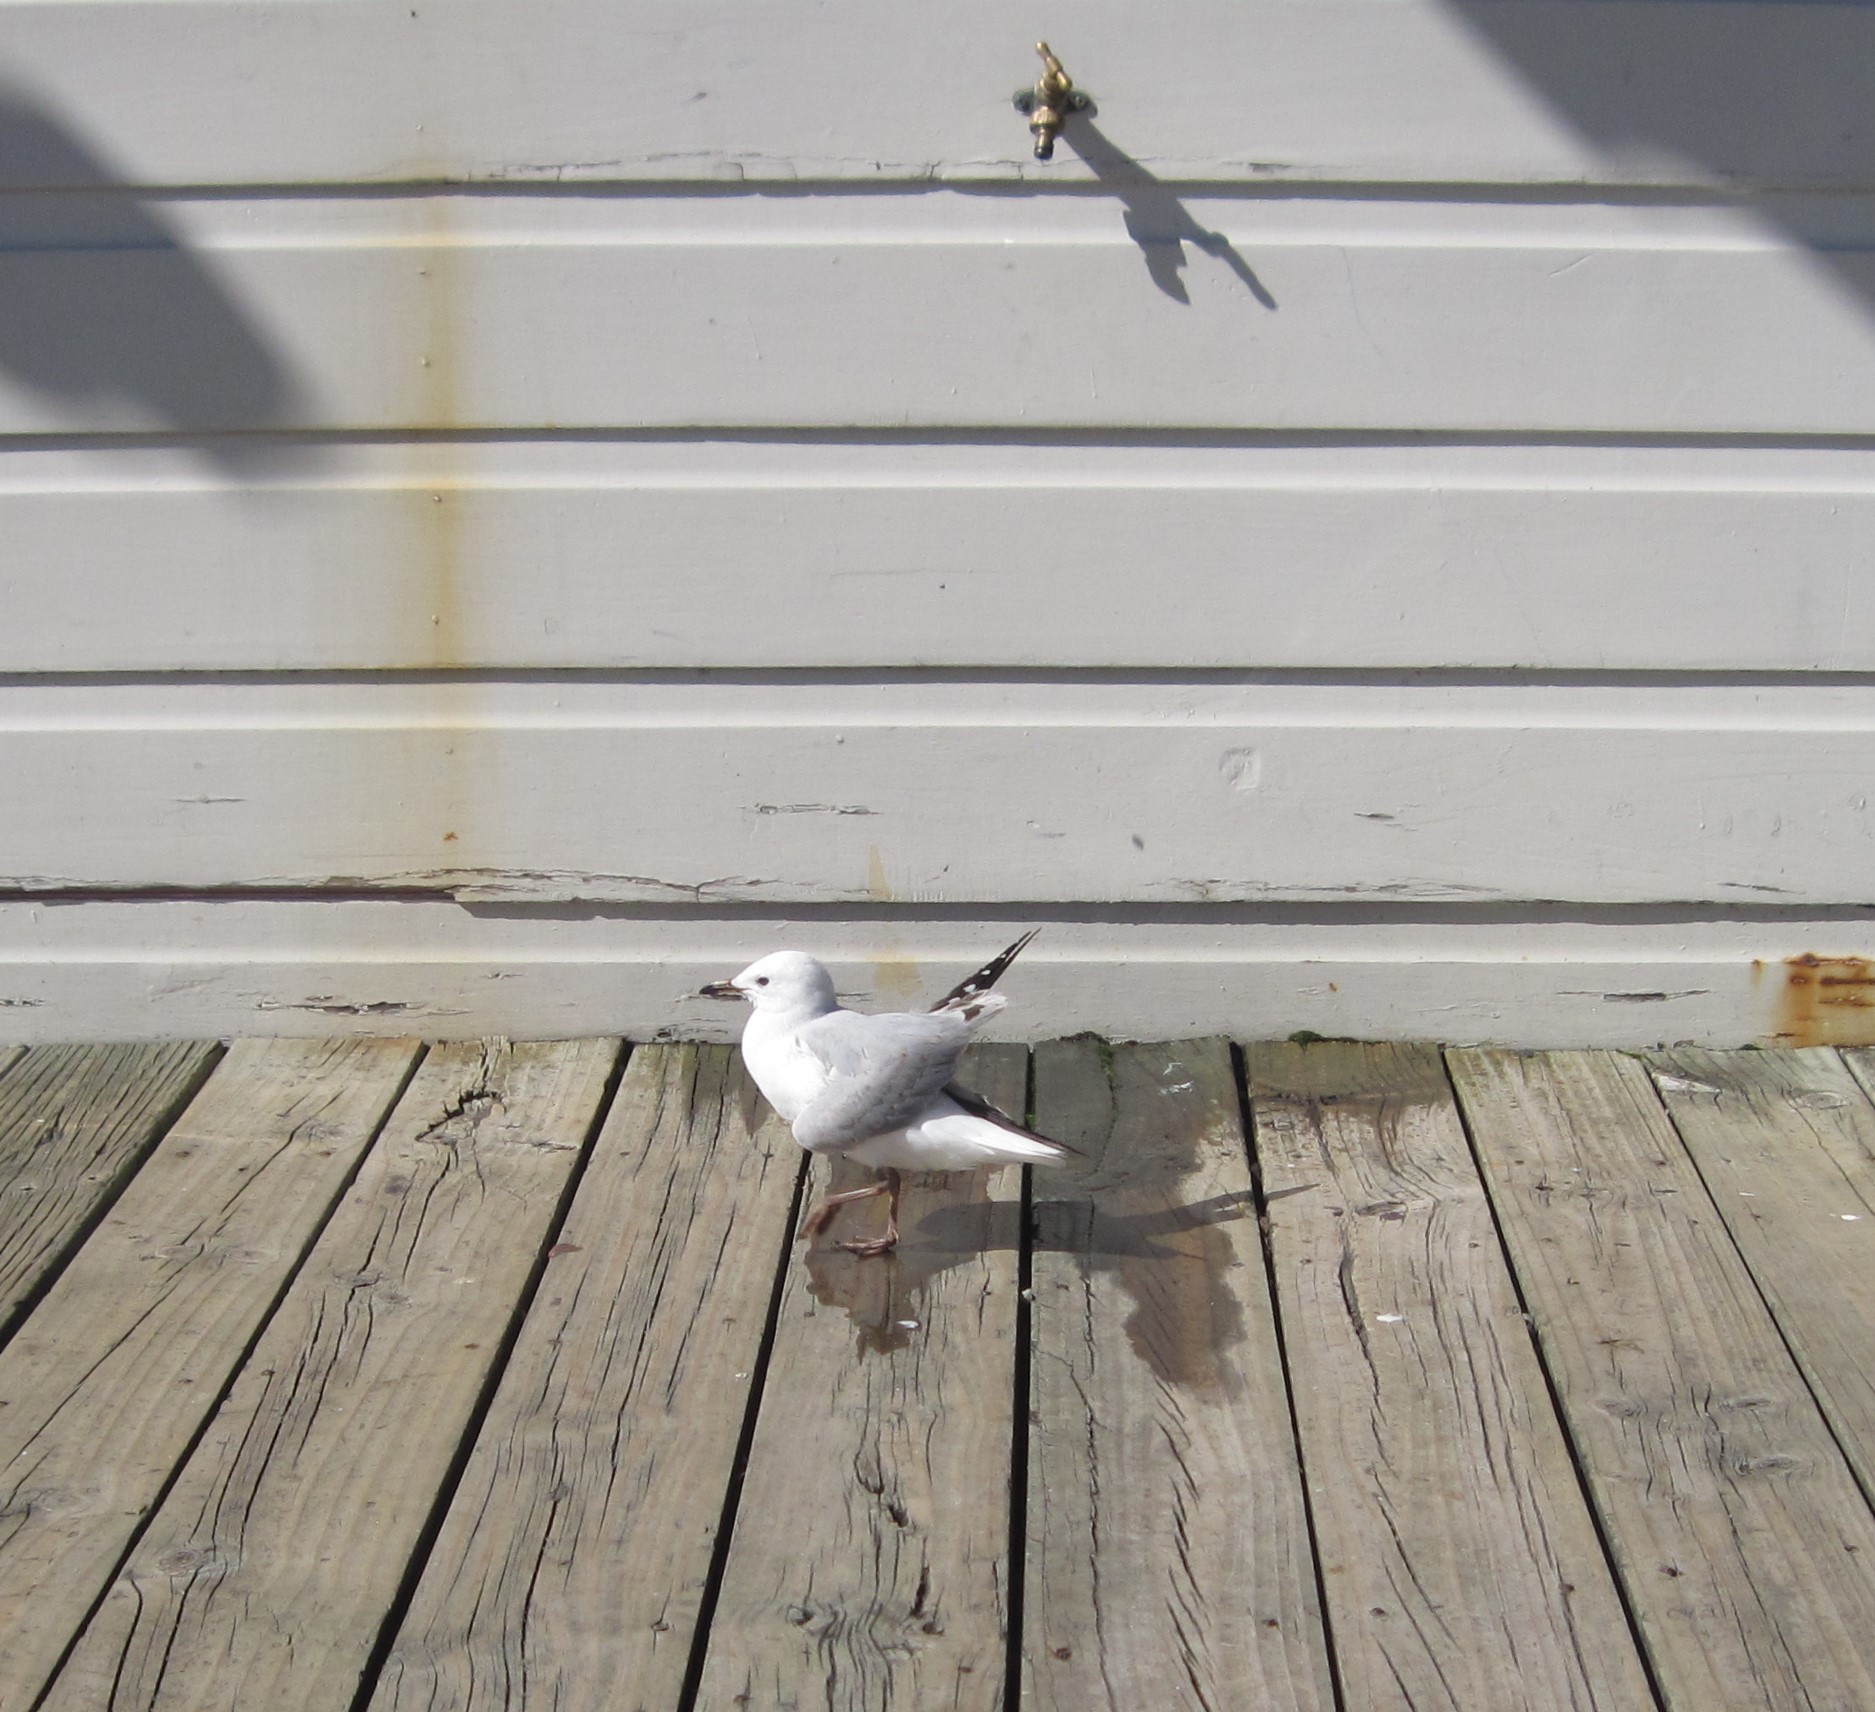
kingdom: Animalia
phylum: Chordata
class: Aves
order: Charadriiformes
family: Laridae
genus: Chroicocephalus
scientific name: Chroicocephalus novaehollandiae
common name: Silver gull
